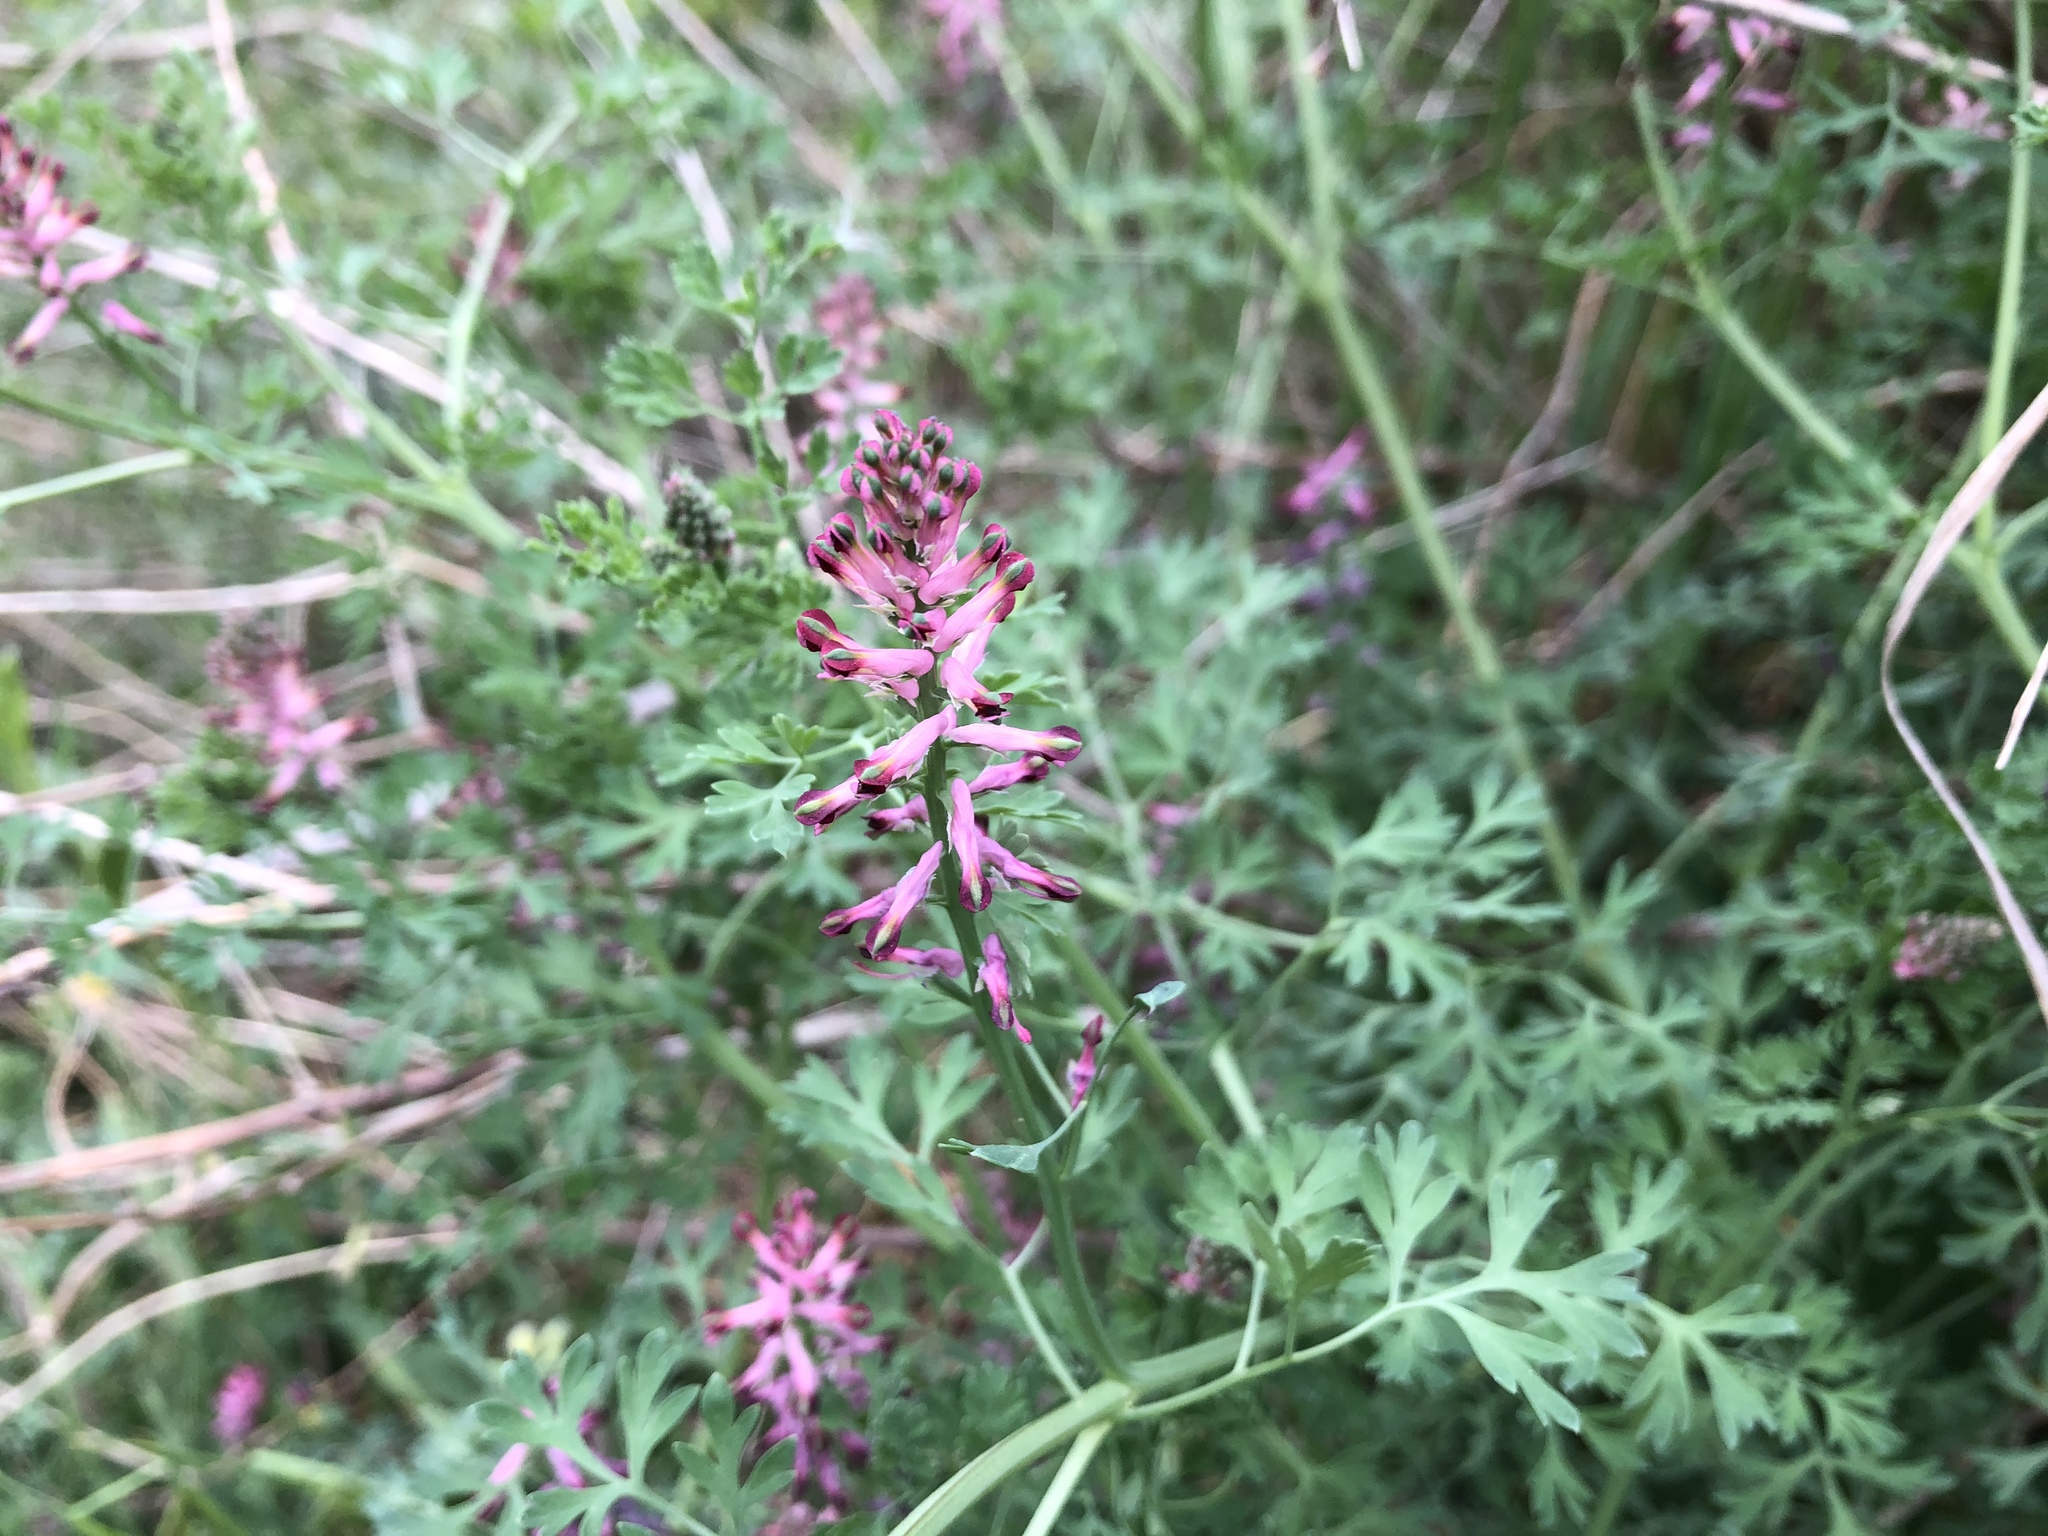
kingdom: Plantae
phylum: Tracheophyta
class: Magnoliopsida
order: Ranunculales
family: Papaveraceae
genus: Fumaria
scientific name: Fumaria officinalis
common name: Common fumitory
